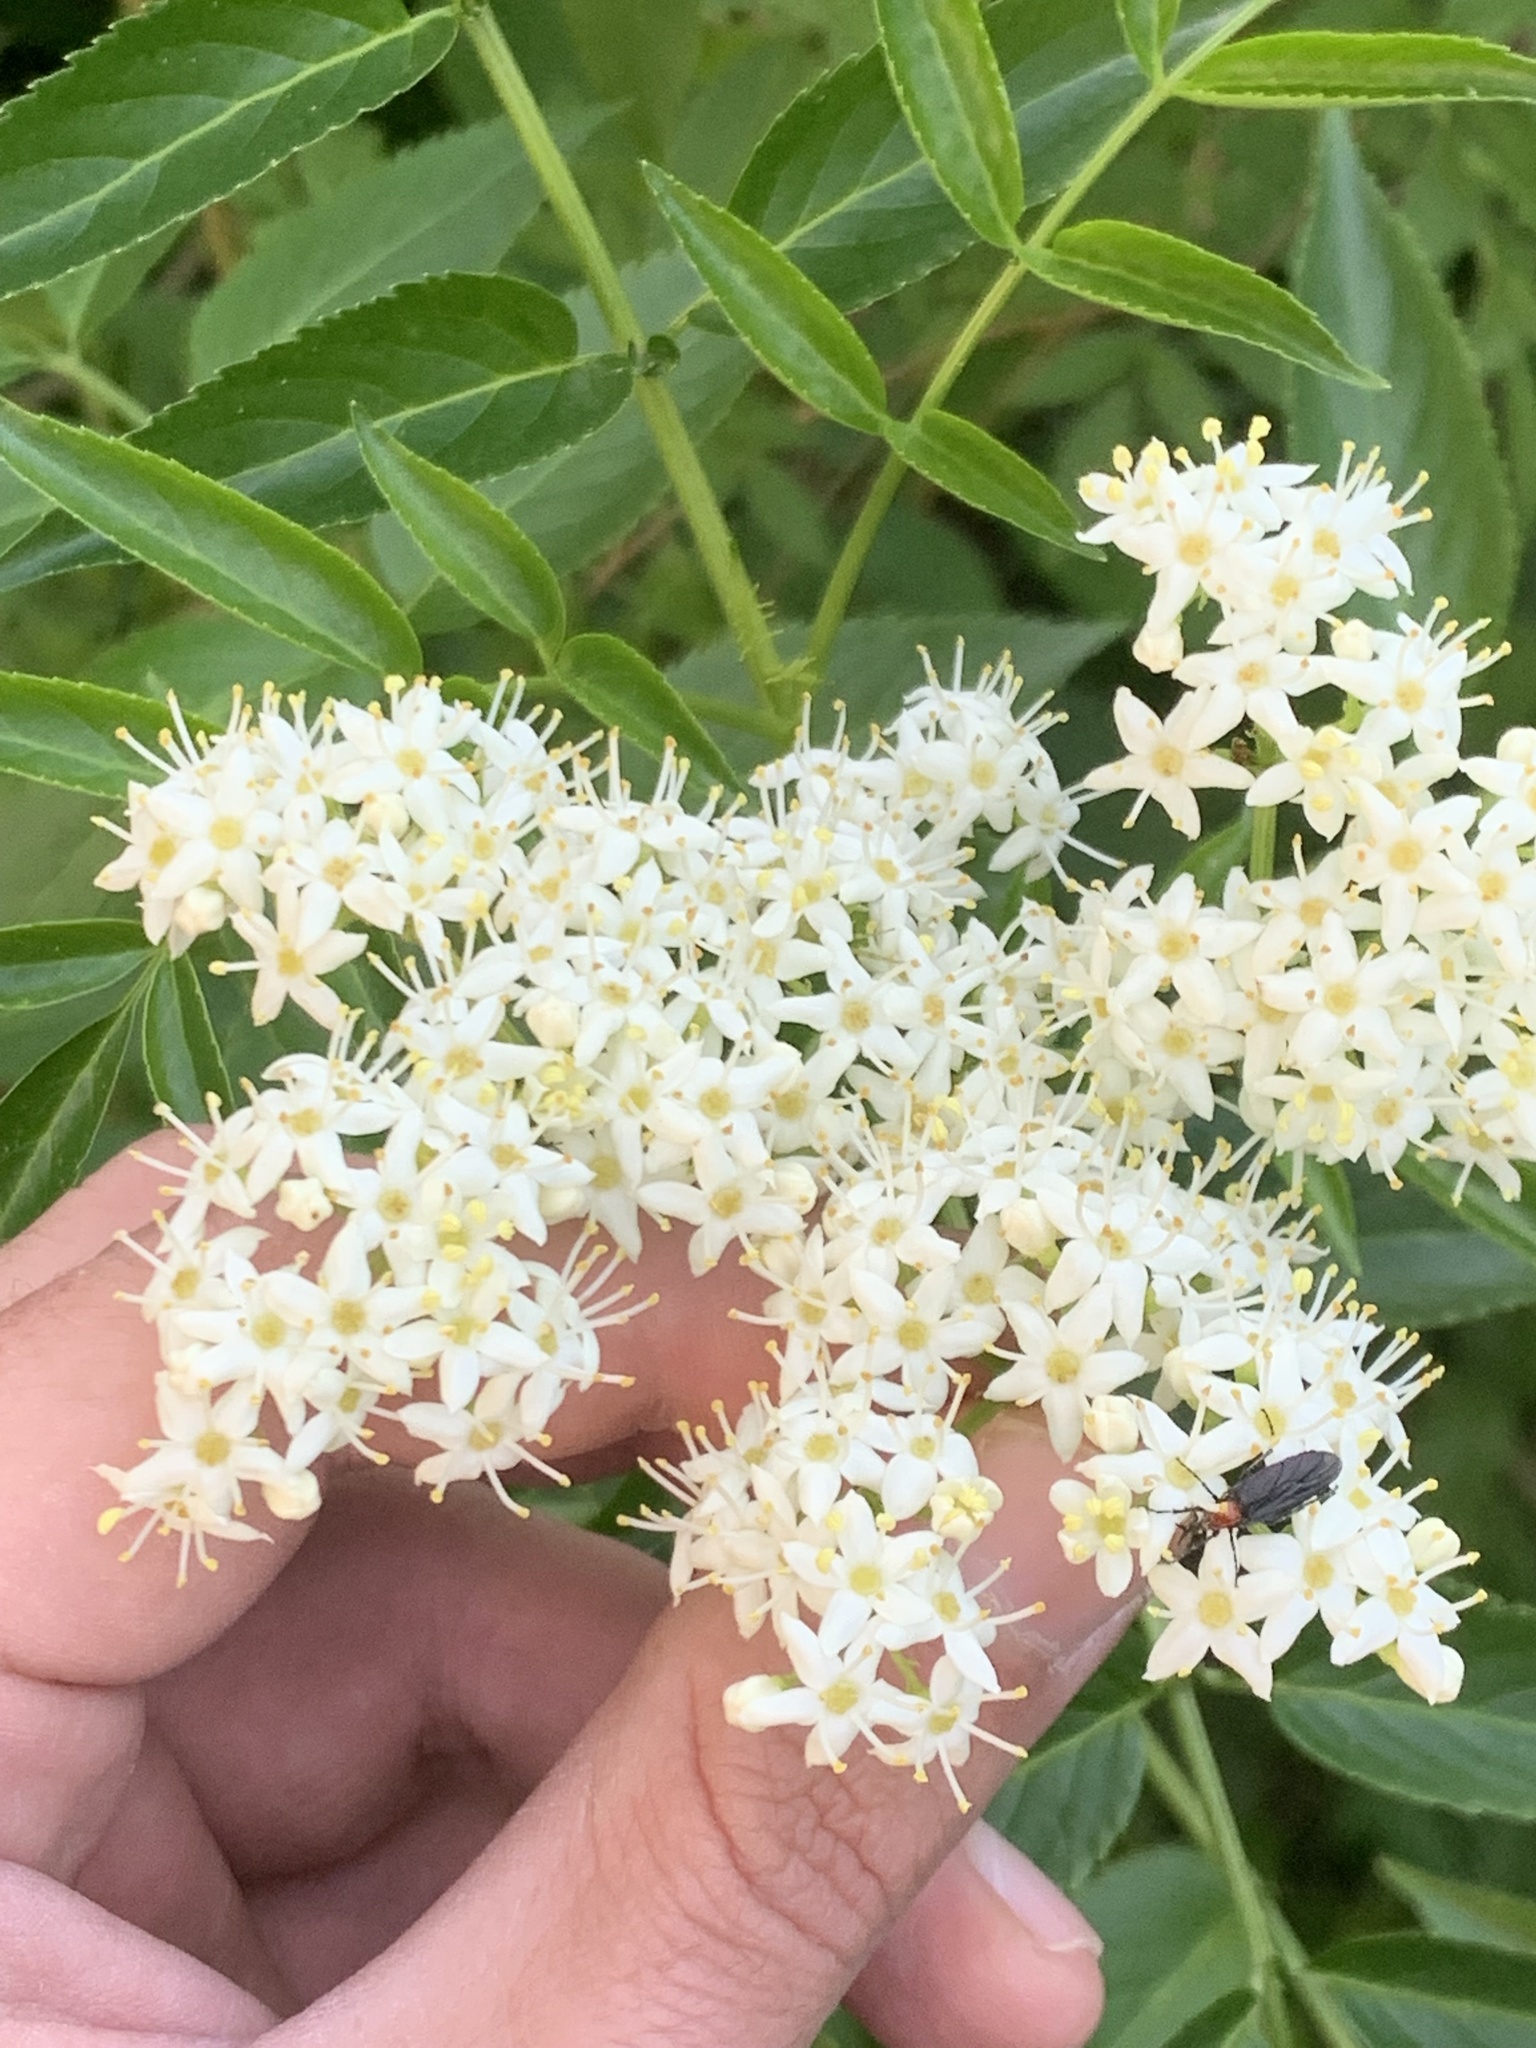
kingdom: Plantae
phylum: Tracheophyta
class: Magnoliopsida
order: Dipsacales
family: Viburnaceae
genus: Sambucus
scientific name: Sambucus australis
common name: Southern elder
